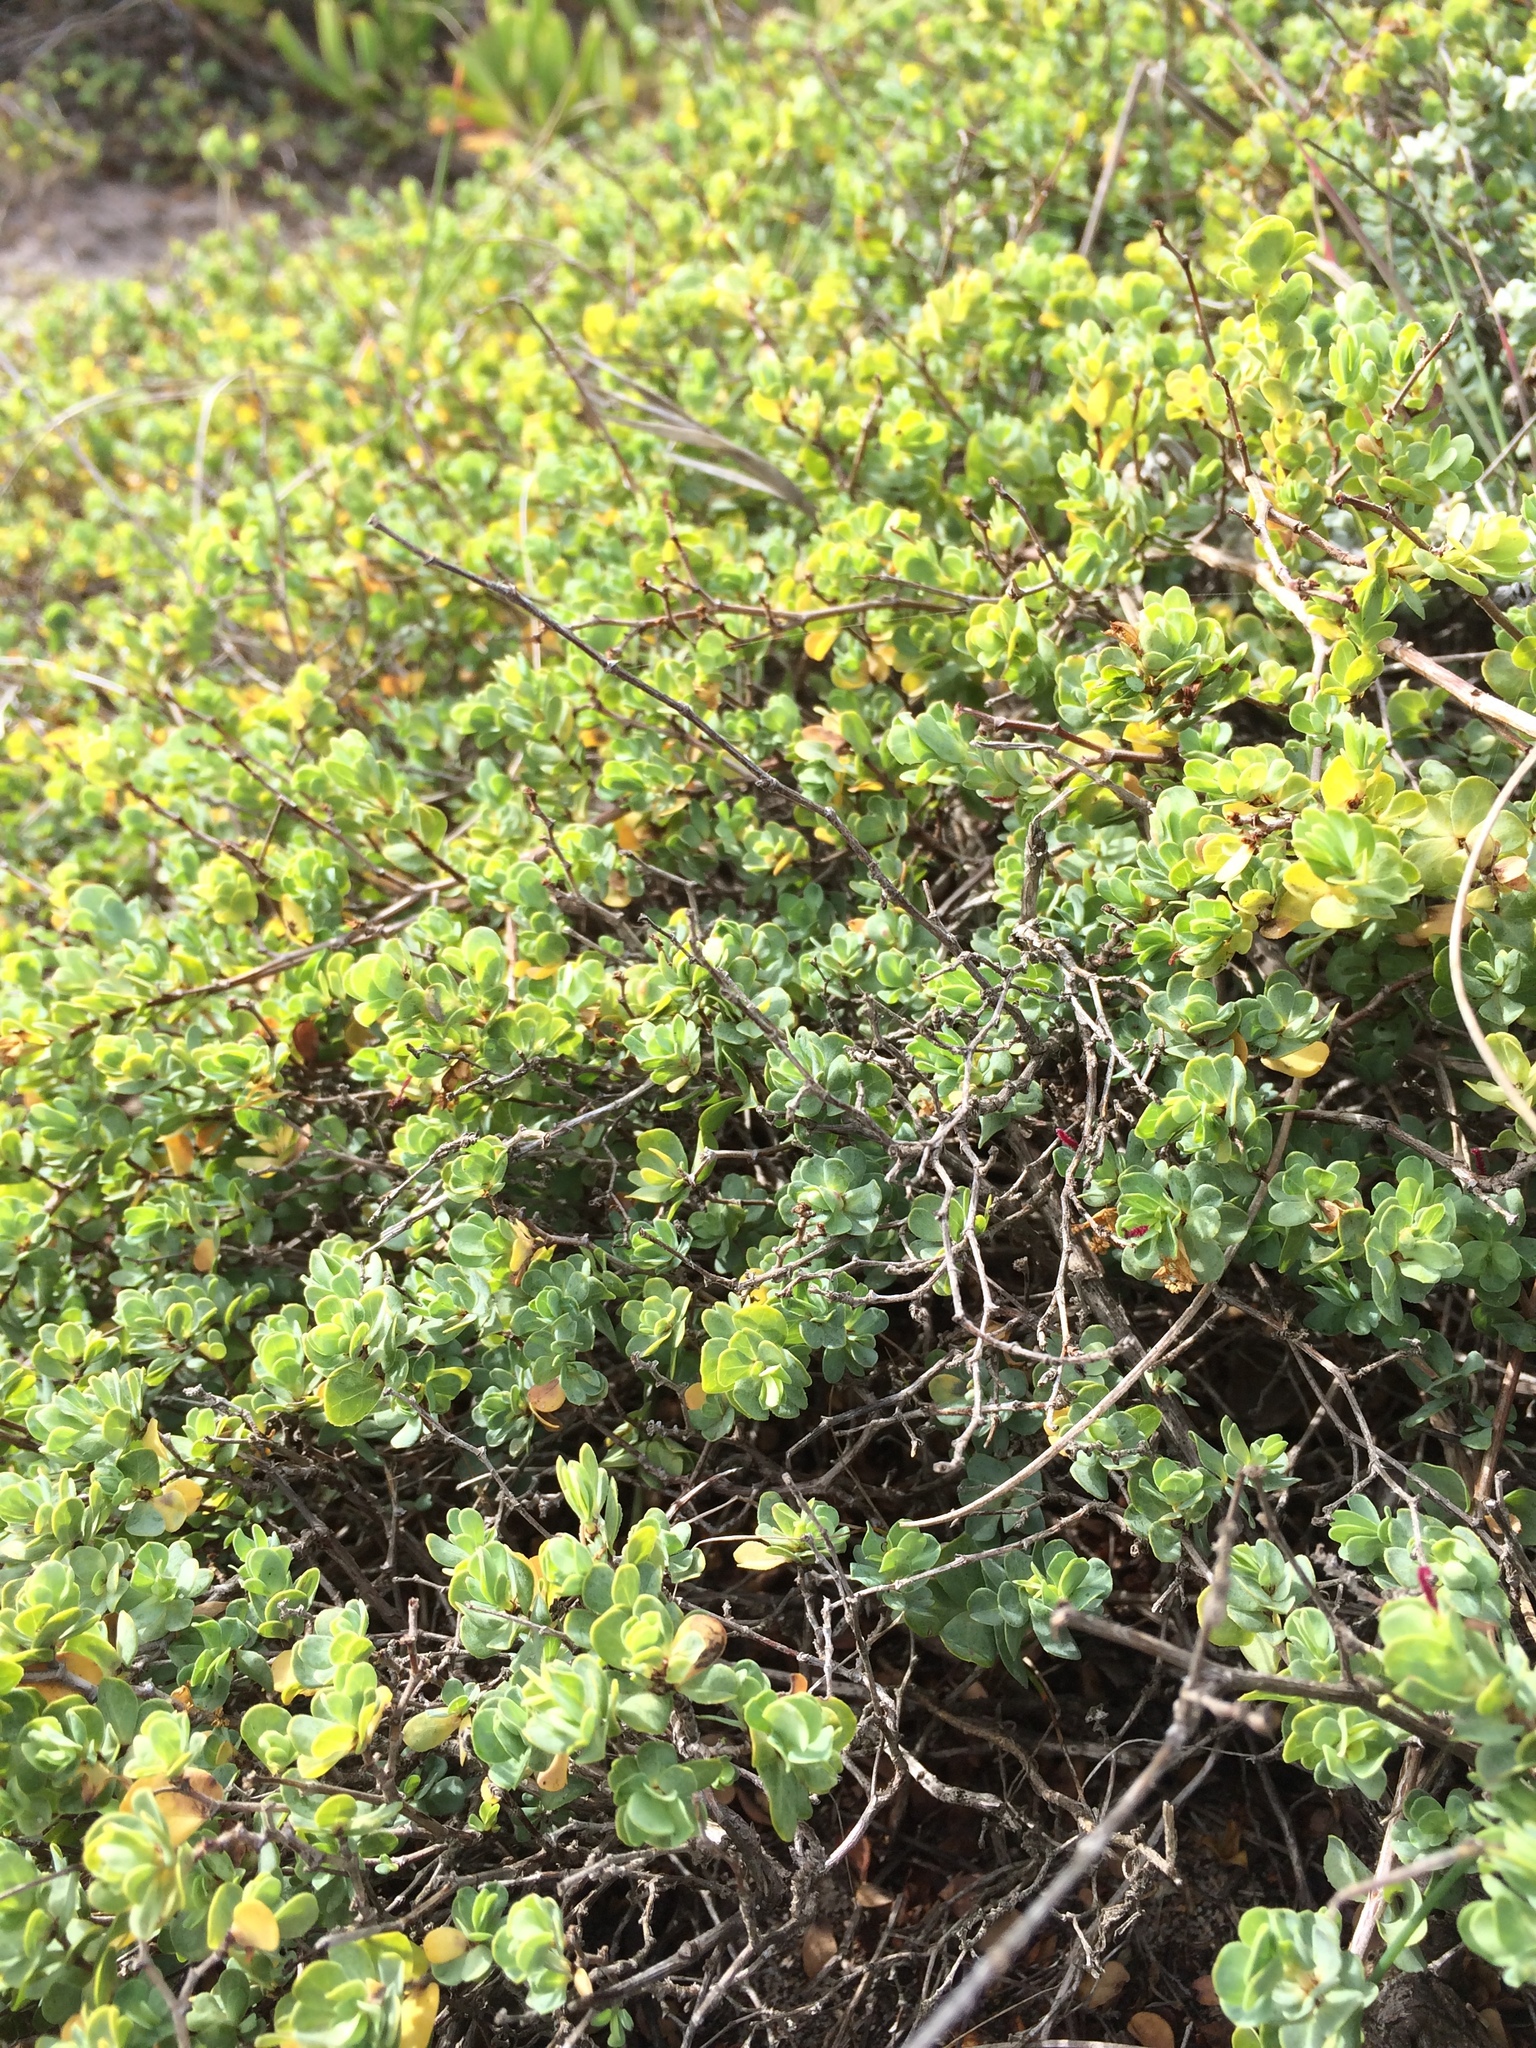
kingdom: Plantae
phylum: Tracheophyta
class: Magnoliopsida
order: Rosales
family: Rosaceae
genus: Cliffortia
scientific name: Cliffortia obcordata
